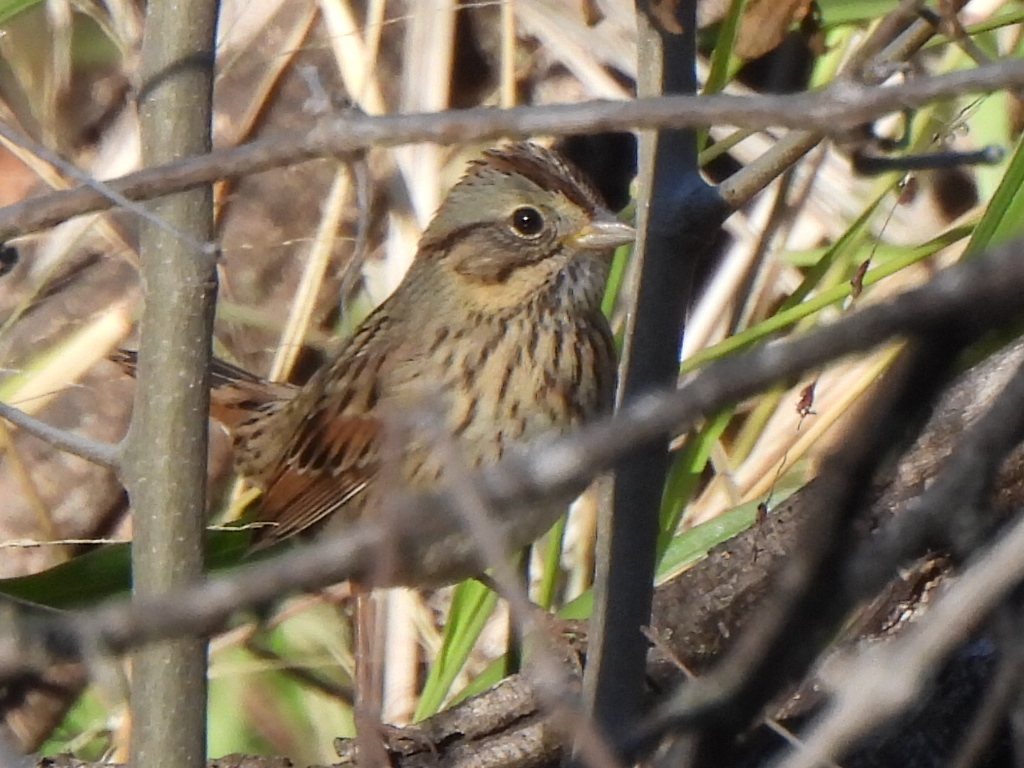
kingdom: Animalia
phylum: Chordata
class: Aves
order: Passeriformes
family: Passerellidae
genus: Melospiza
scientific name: Melospiza lincolnii
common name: Lincoln's sparrow
